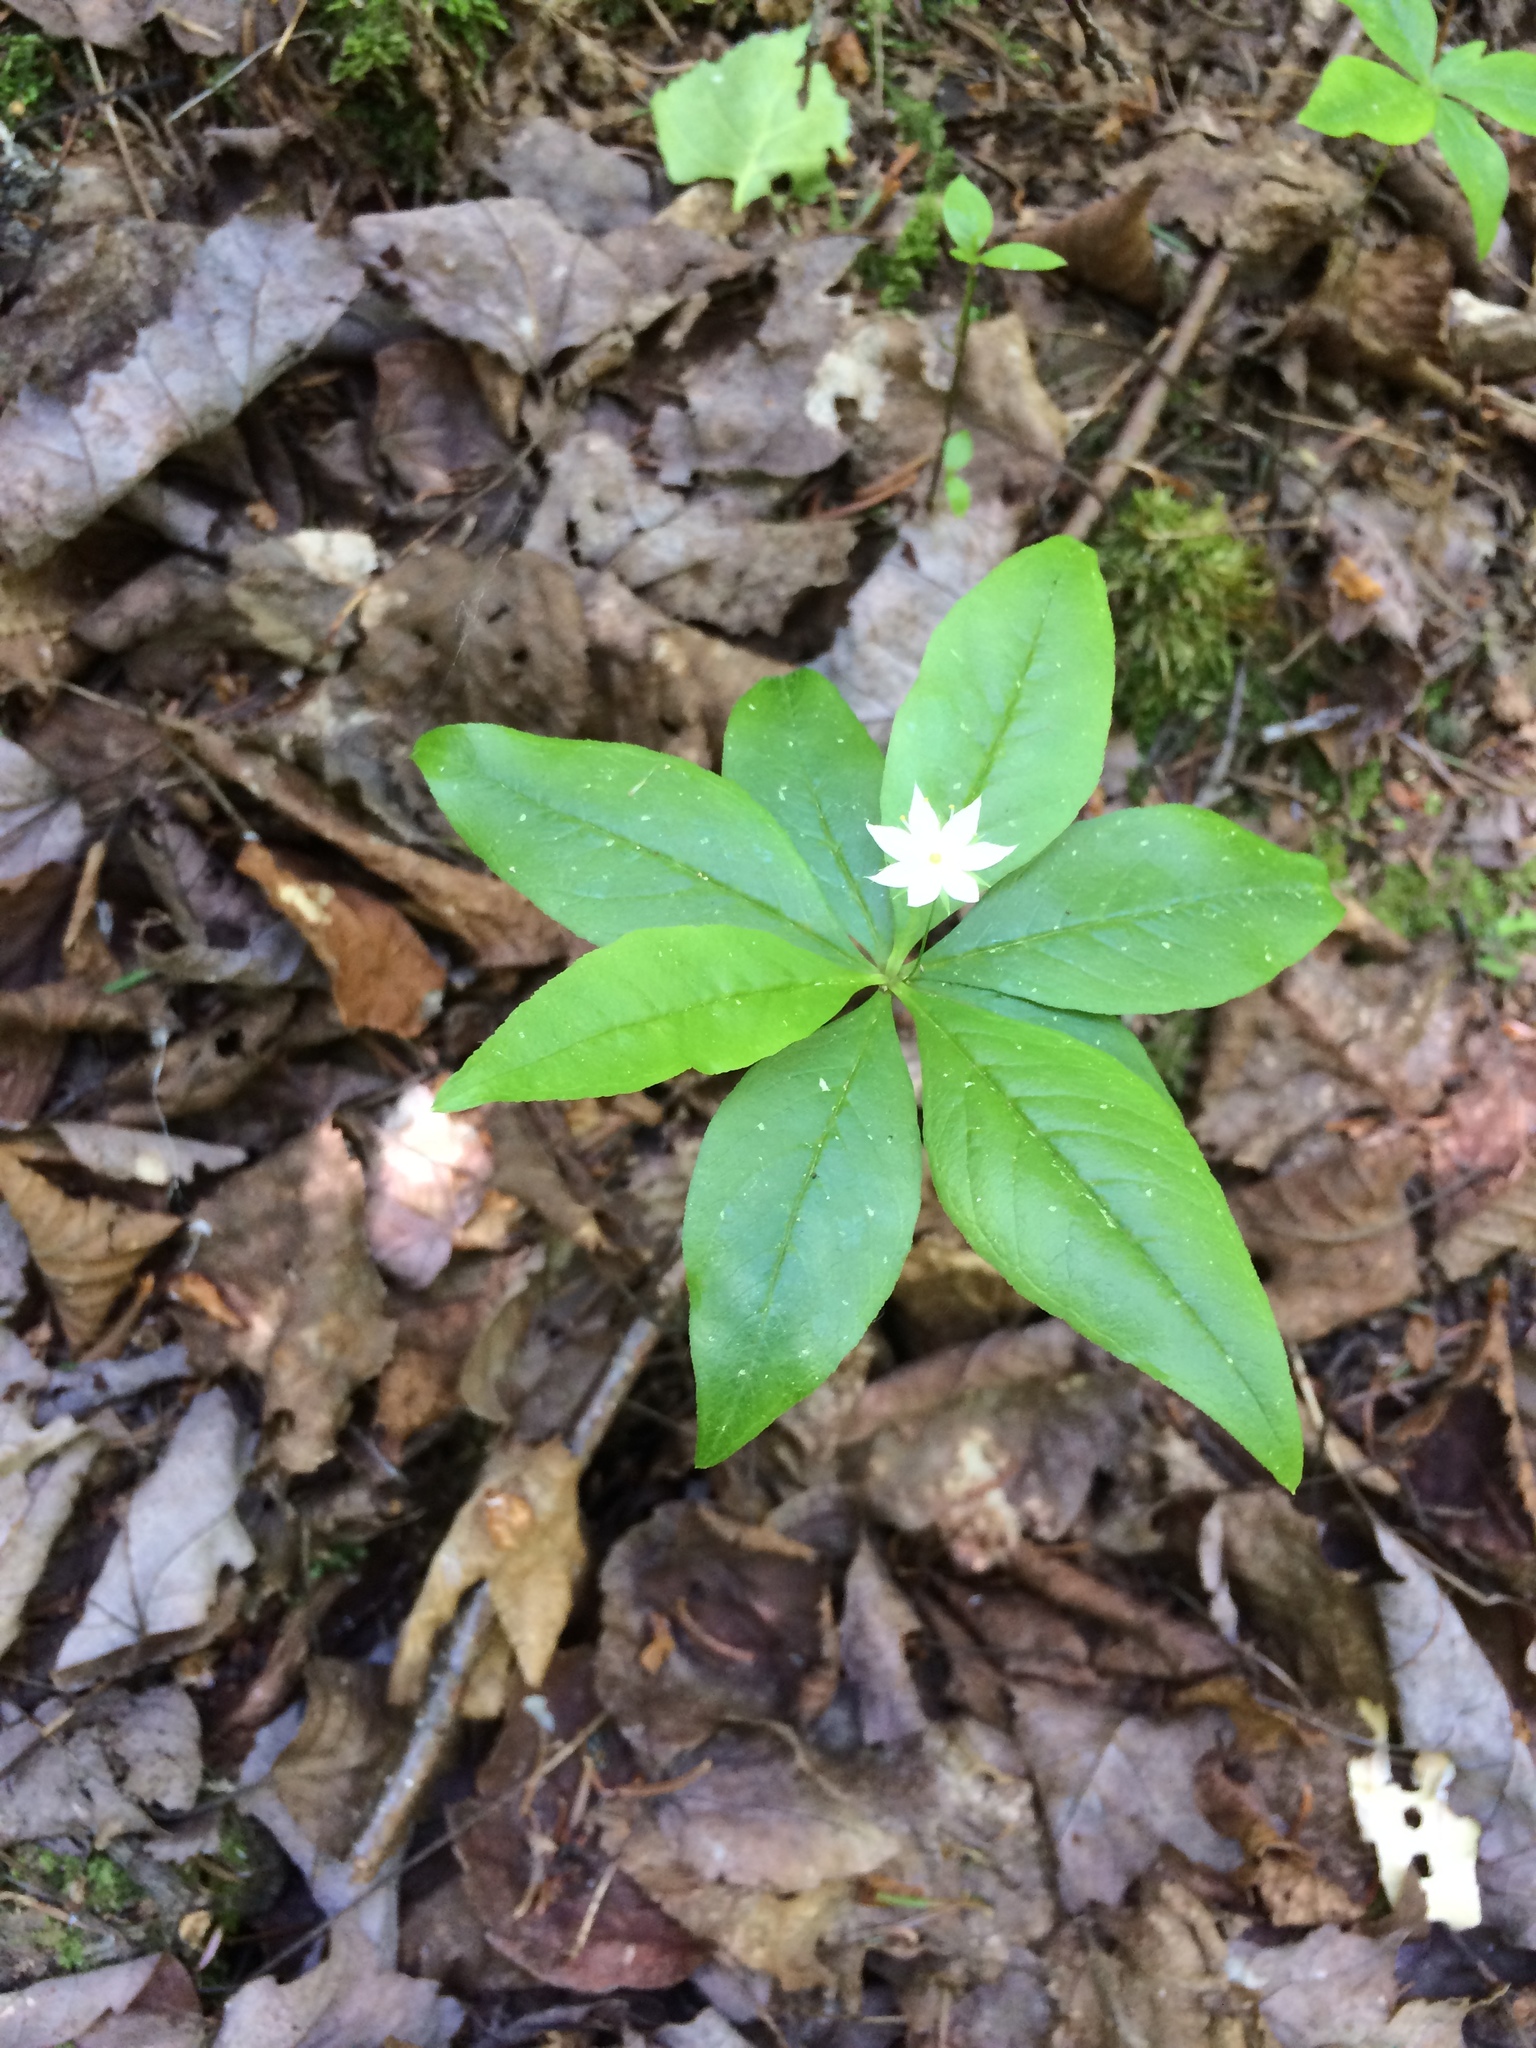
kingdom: Plantae
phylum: Tracheophyta
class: Magnoliopsida
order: Ericales
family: Primulaceae
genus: Lysimachia
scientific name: Lysimachia borealis
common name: American starflower
